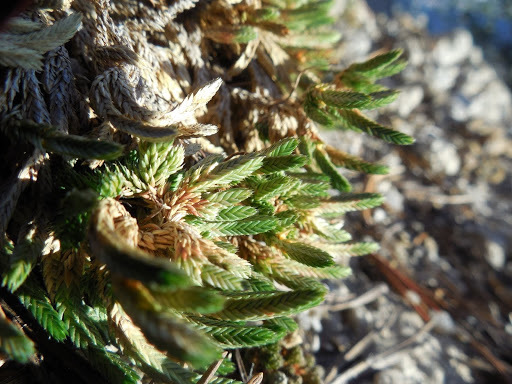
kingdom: Plantae
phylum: Tracheophyta
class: Lycopodiopsida
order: Selaginellales
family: Selaginellaceae
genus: Selaginella
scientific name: Selaginella watsonii
